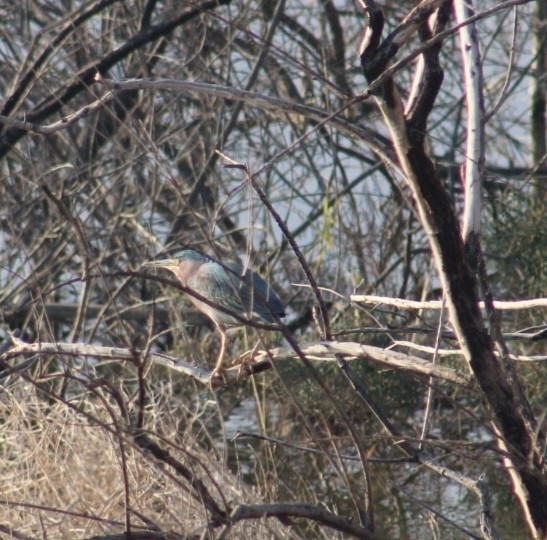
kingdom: Animalia
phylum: Chordata
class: Aves
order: Pelecaniformes
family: Ardeidae
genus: Butorides
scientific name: Butorides virescens
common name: Green heron
